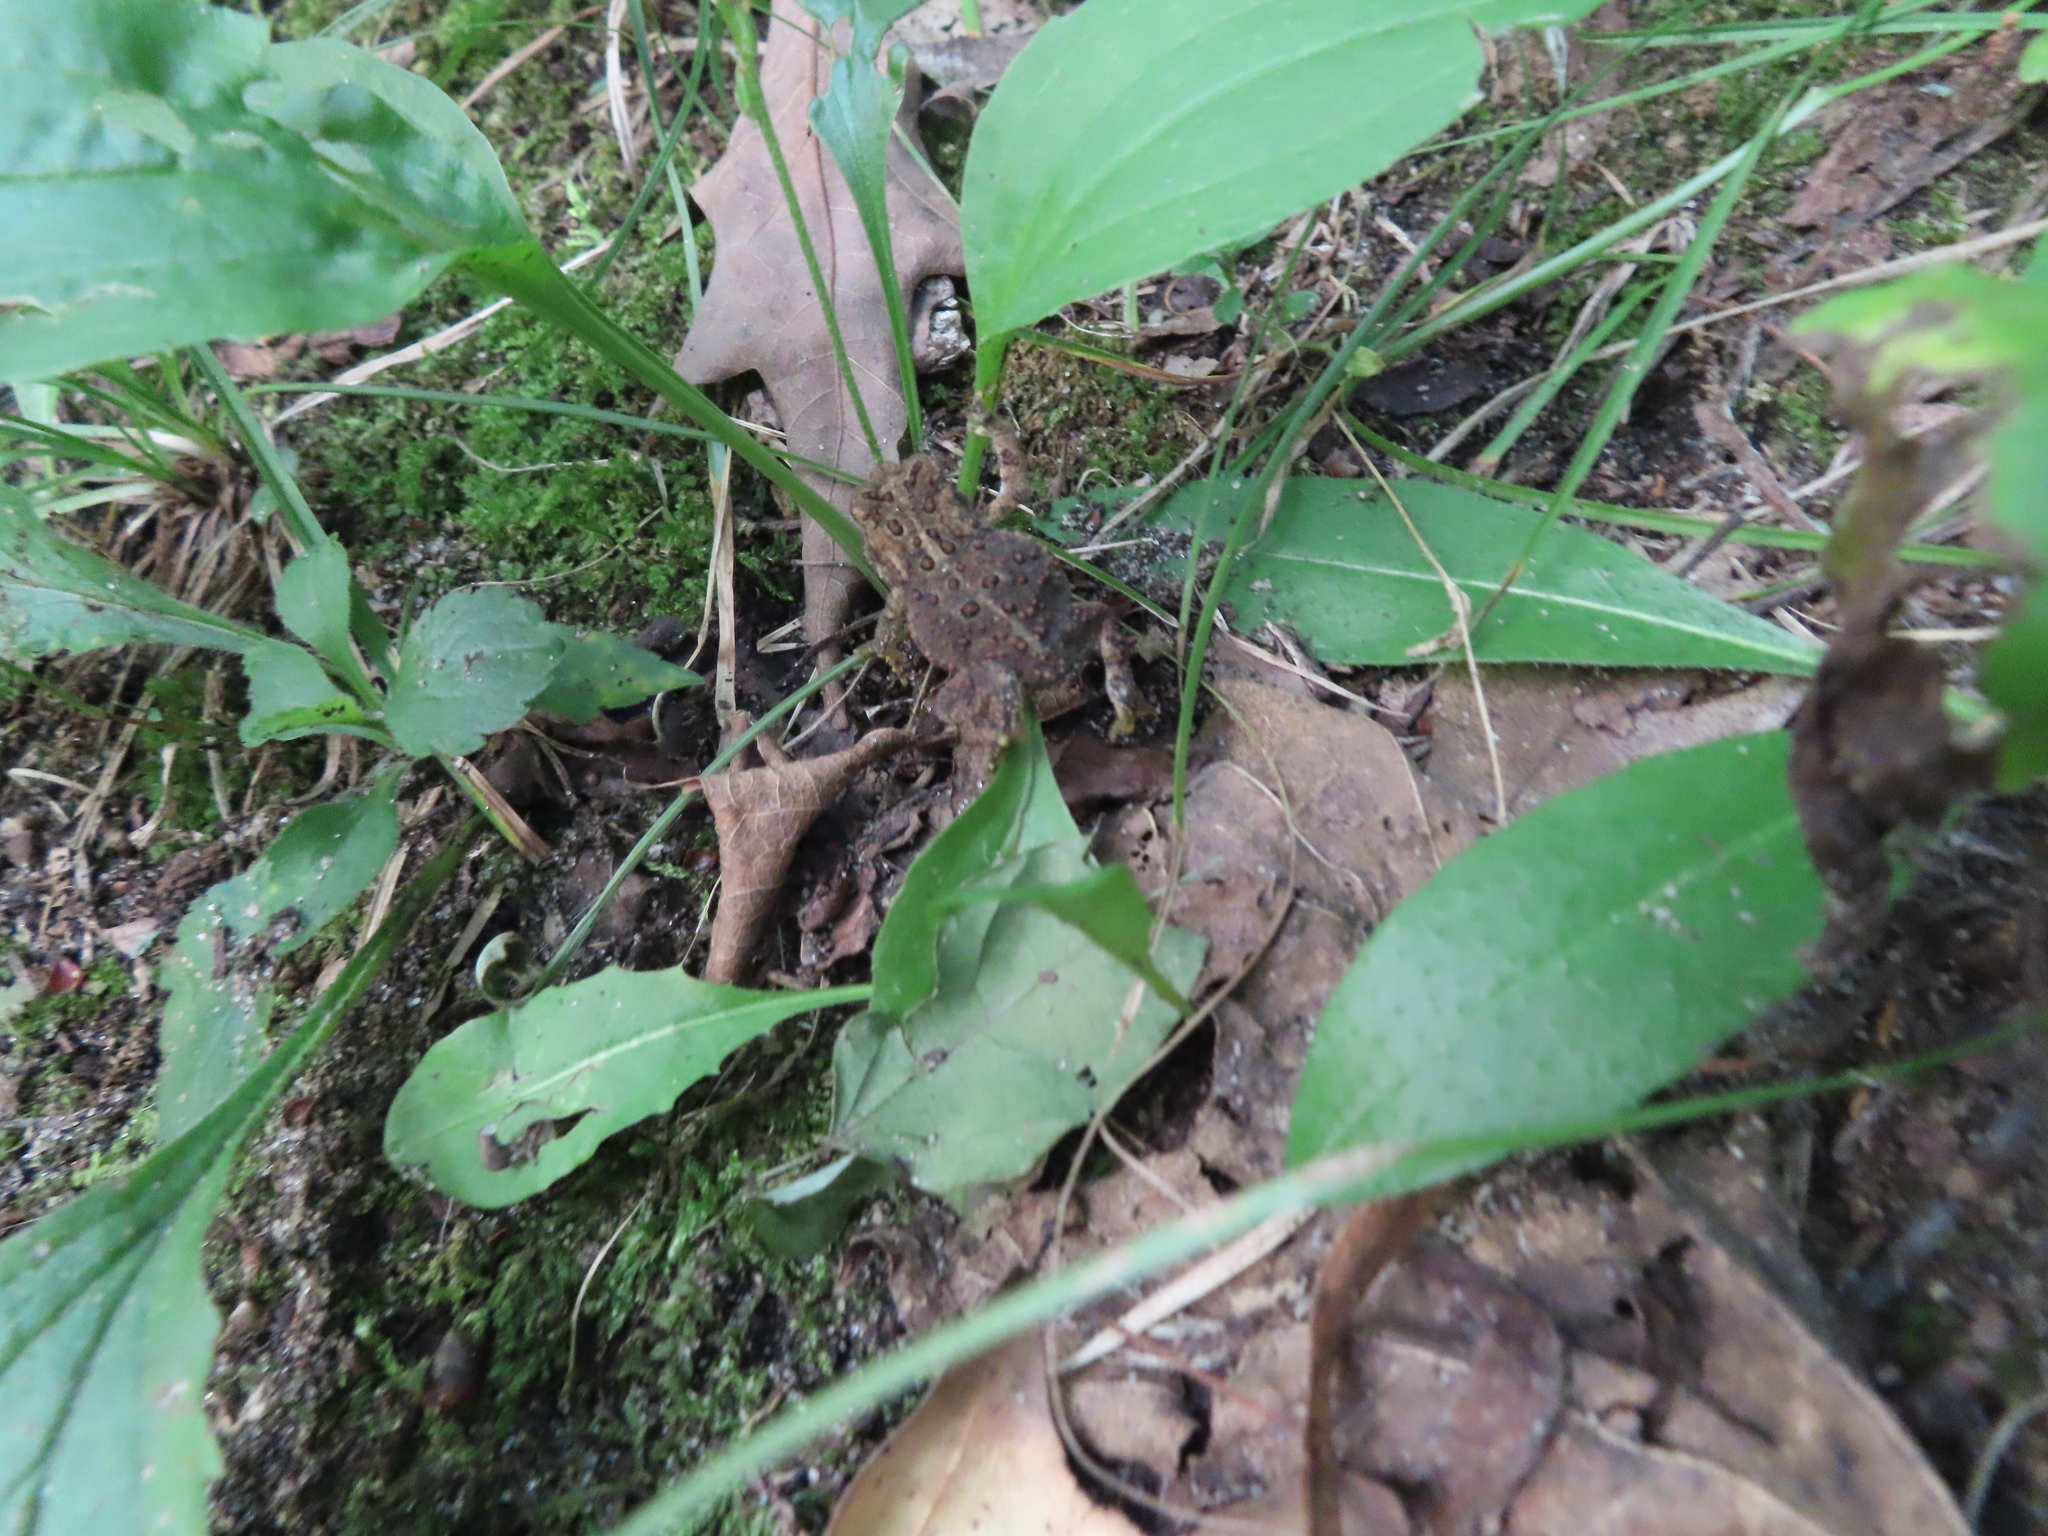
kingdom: Animalia
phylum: Chordata
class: Amphibia
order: Anura
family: Bufonidae
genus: Anaxyrus
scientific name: Anaxyrus americanus
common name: American toad
